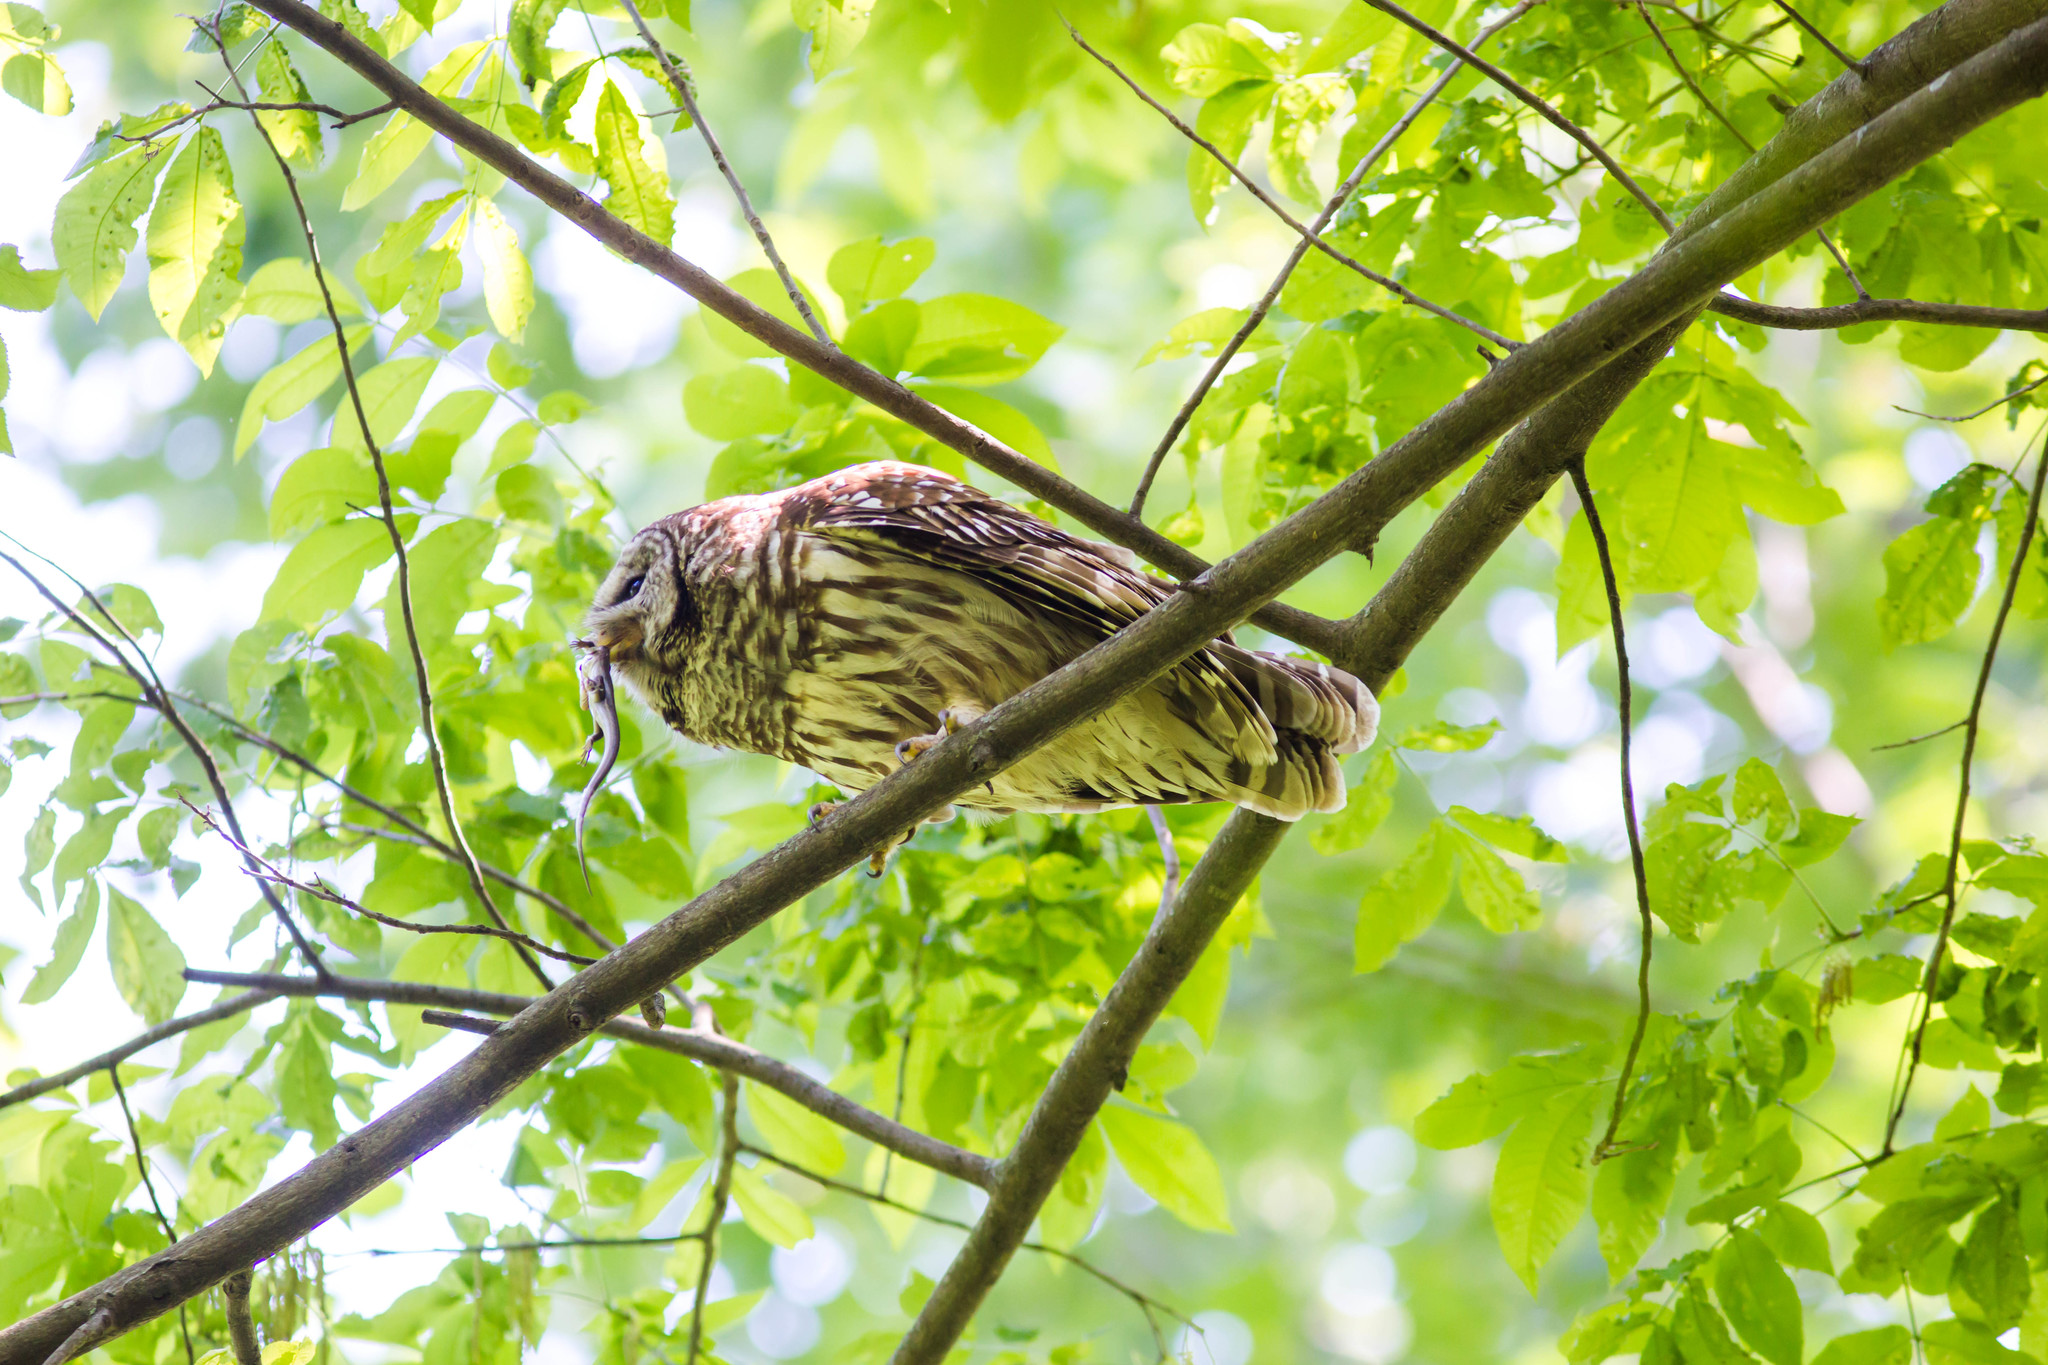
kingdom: Animalia
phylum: Chordata
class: Aves
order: Strigiformes
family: Strigidae
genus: Strix
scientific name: Strix varia
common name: Barred owl
